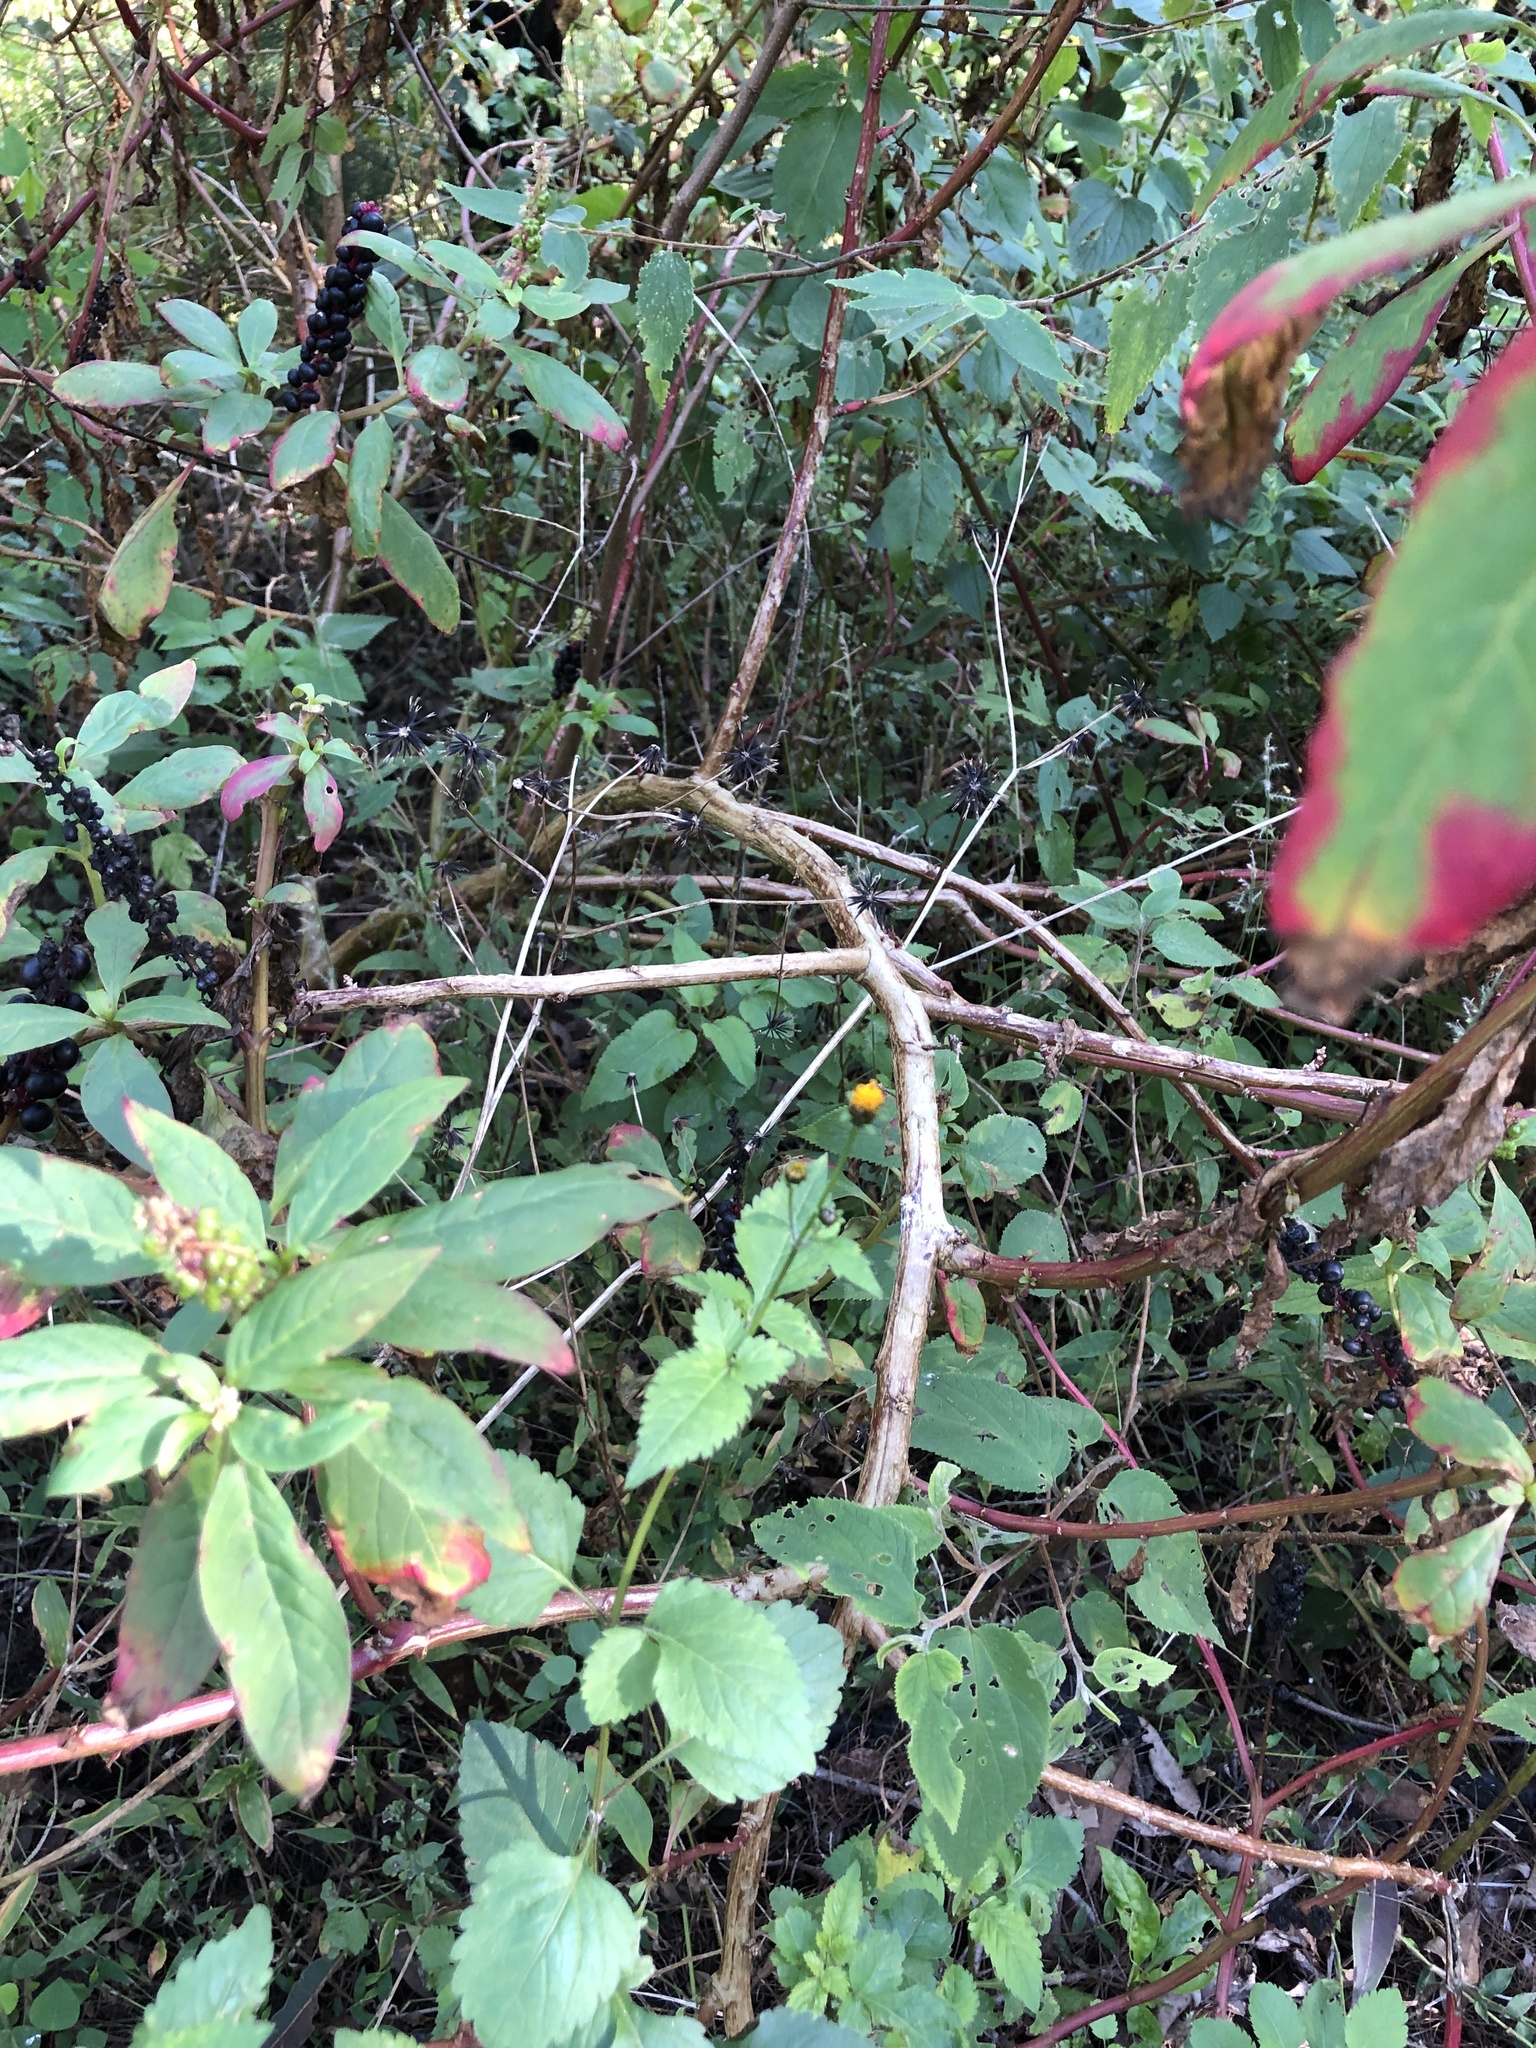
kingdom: Plantae
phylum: Tracheophyta
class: Magnoliopsida
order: Caryophyllales
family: Phytolaccaceae
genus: Phytolacca
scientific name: Phytolacca icosandra
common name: Button pokeweed
